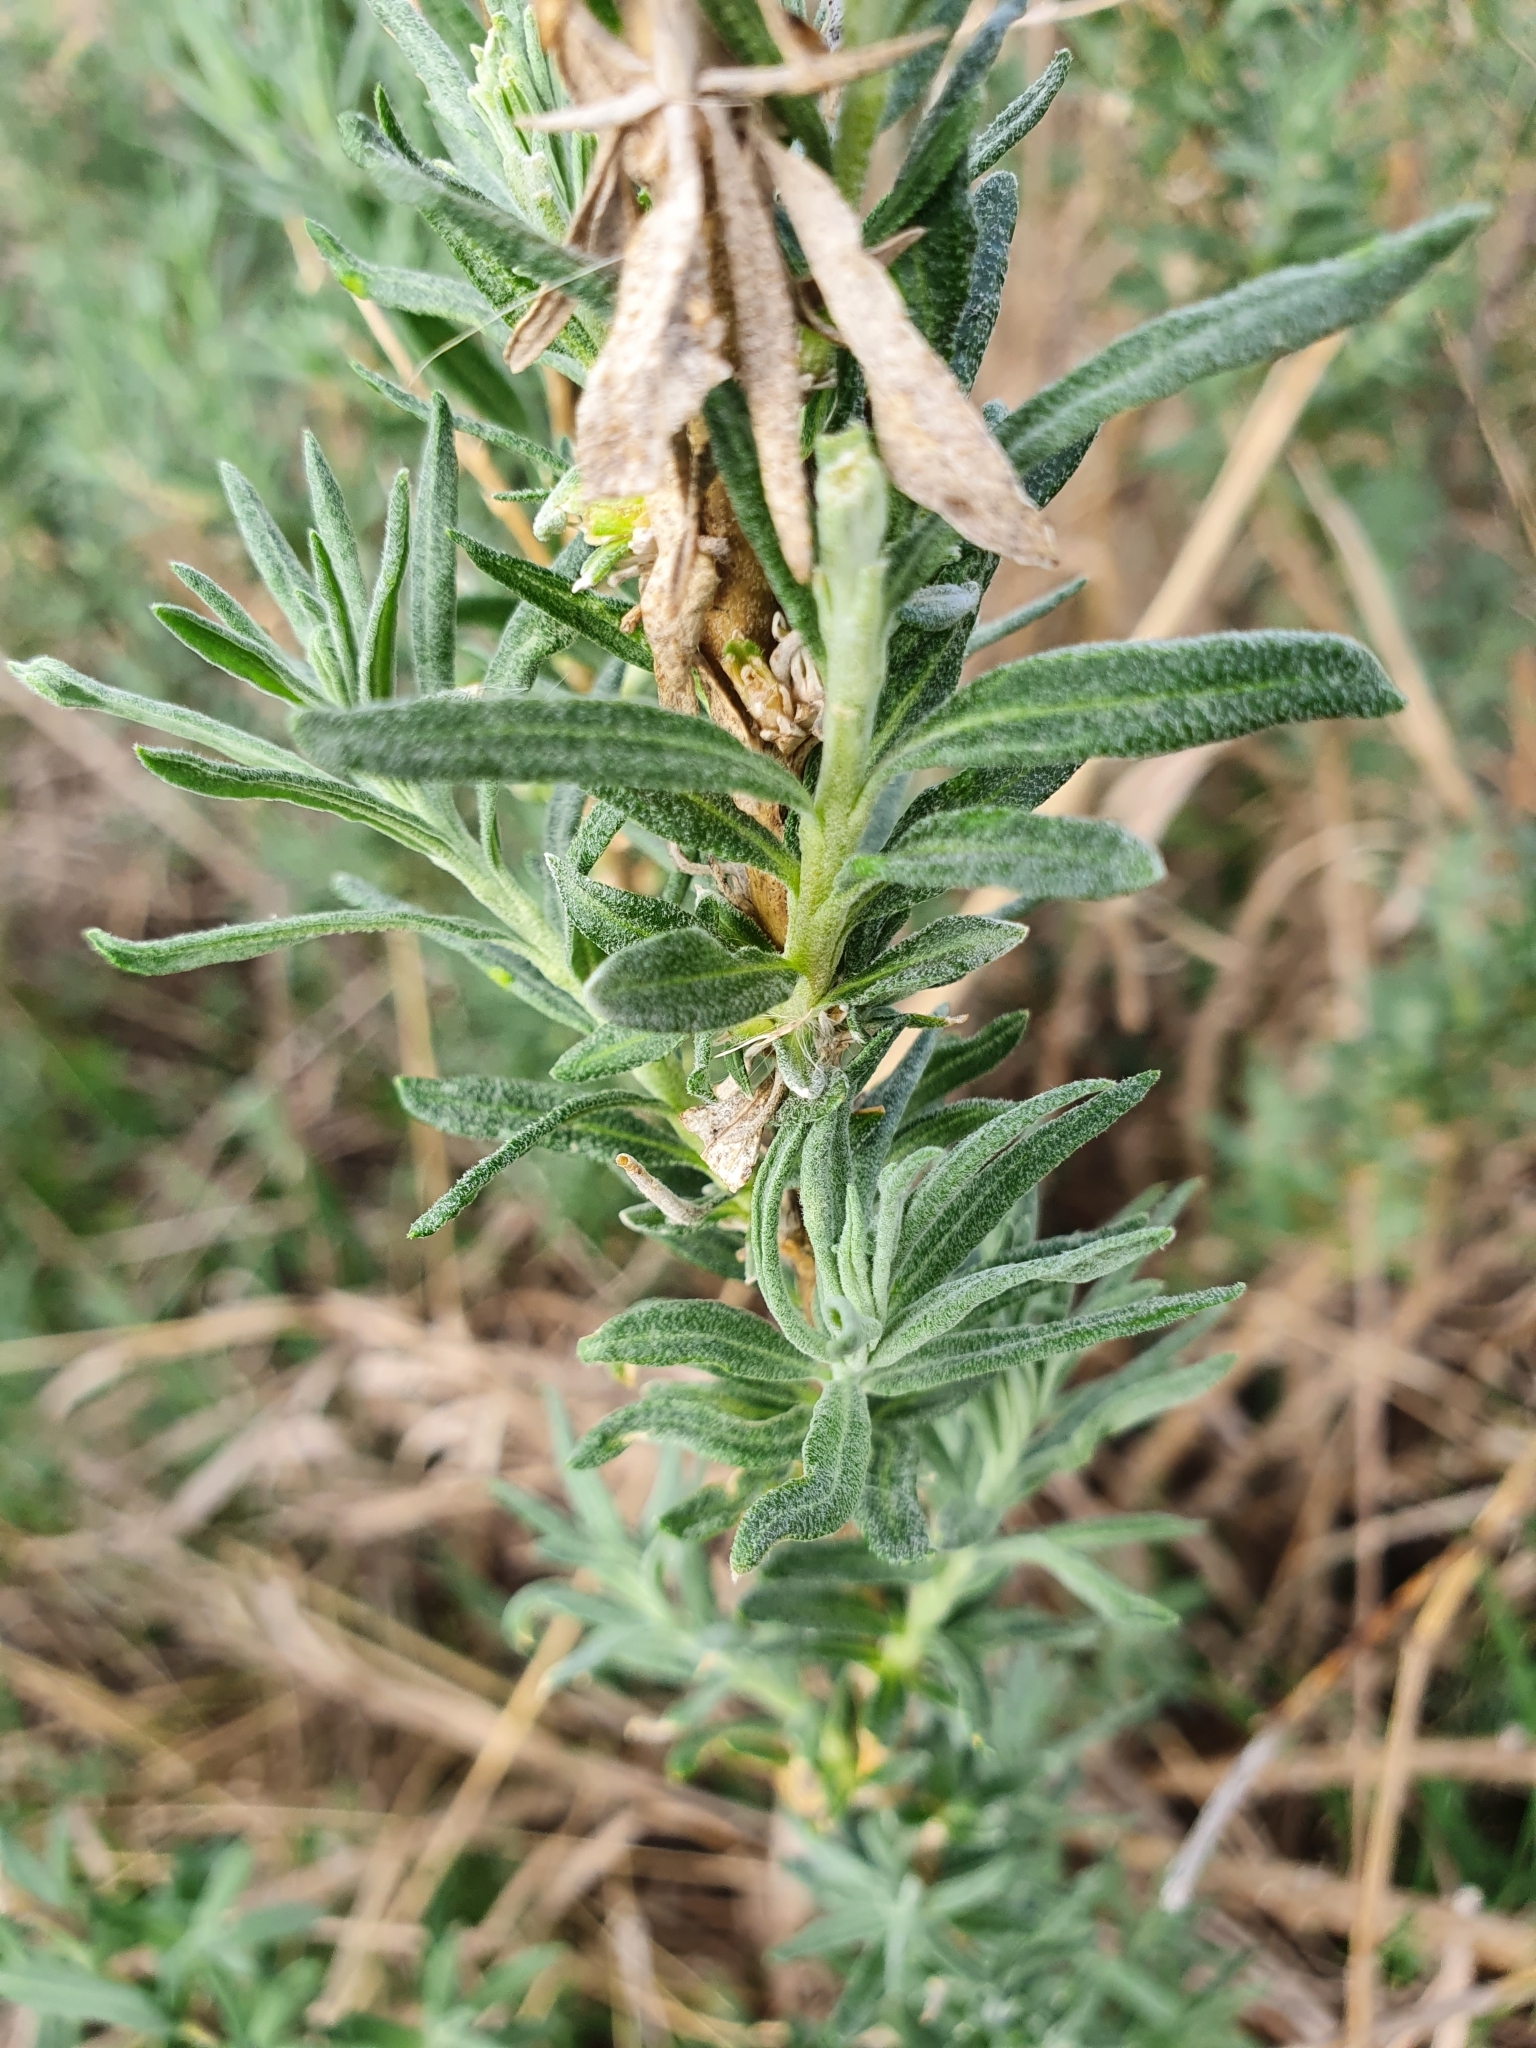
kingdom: Plantae
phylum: Tracheophyta
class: Magnoliopsida
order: Caryophyllales
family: Amaranthaceae
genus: Krascheninnikovia
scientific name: Krascheninnikovia ceratoides
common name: Pamirian winterfat
